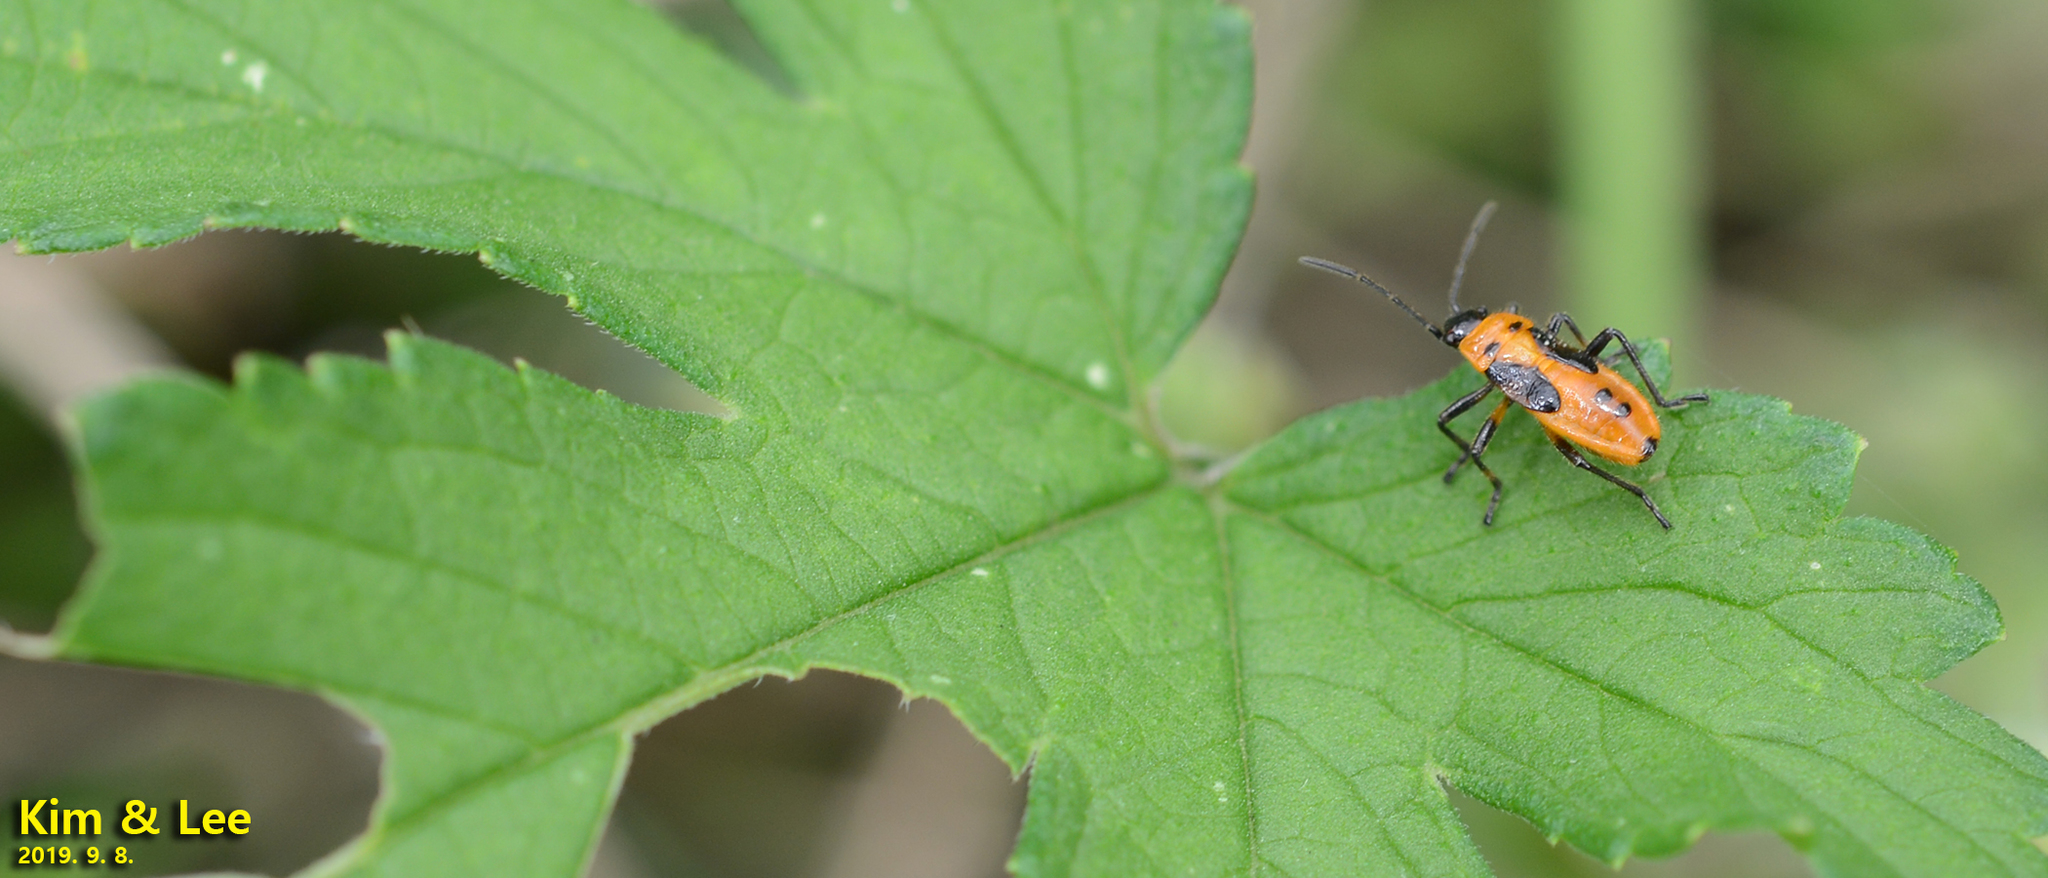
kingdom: Animalia
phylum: Arthropoda
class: Insecta
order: Hemiptera
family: Lygaeidae
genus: Tropidothorax
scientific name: Tropidothorax cruciger
